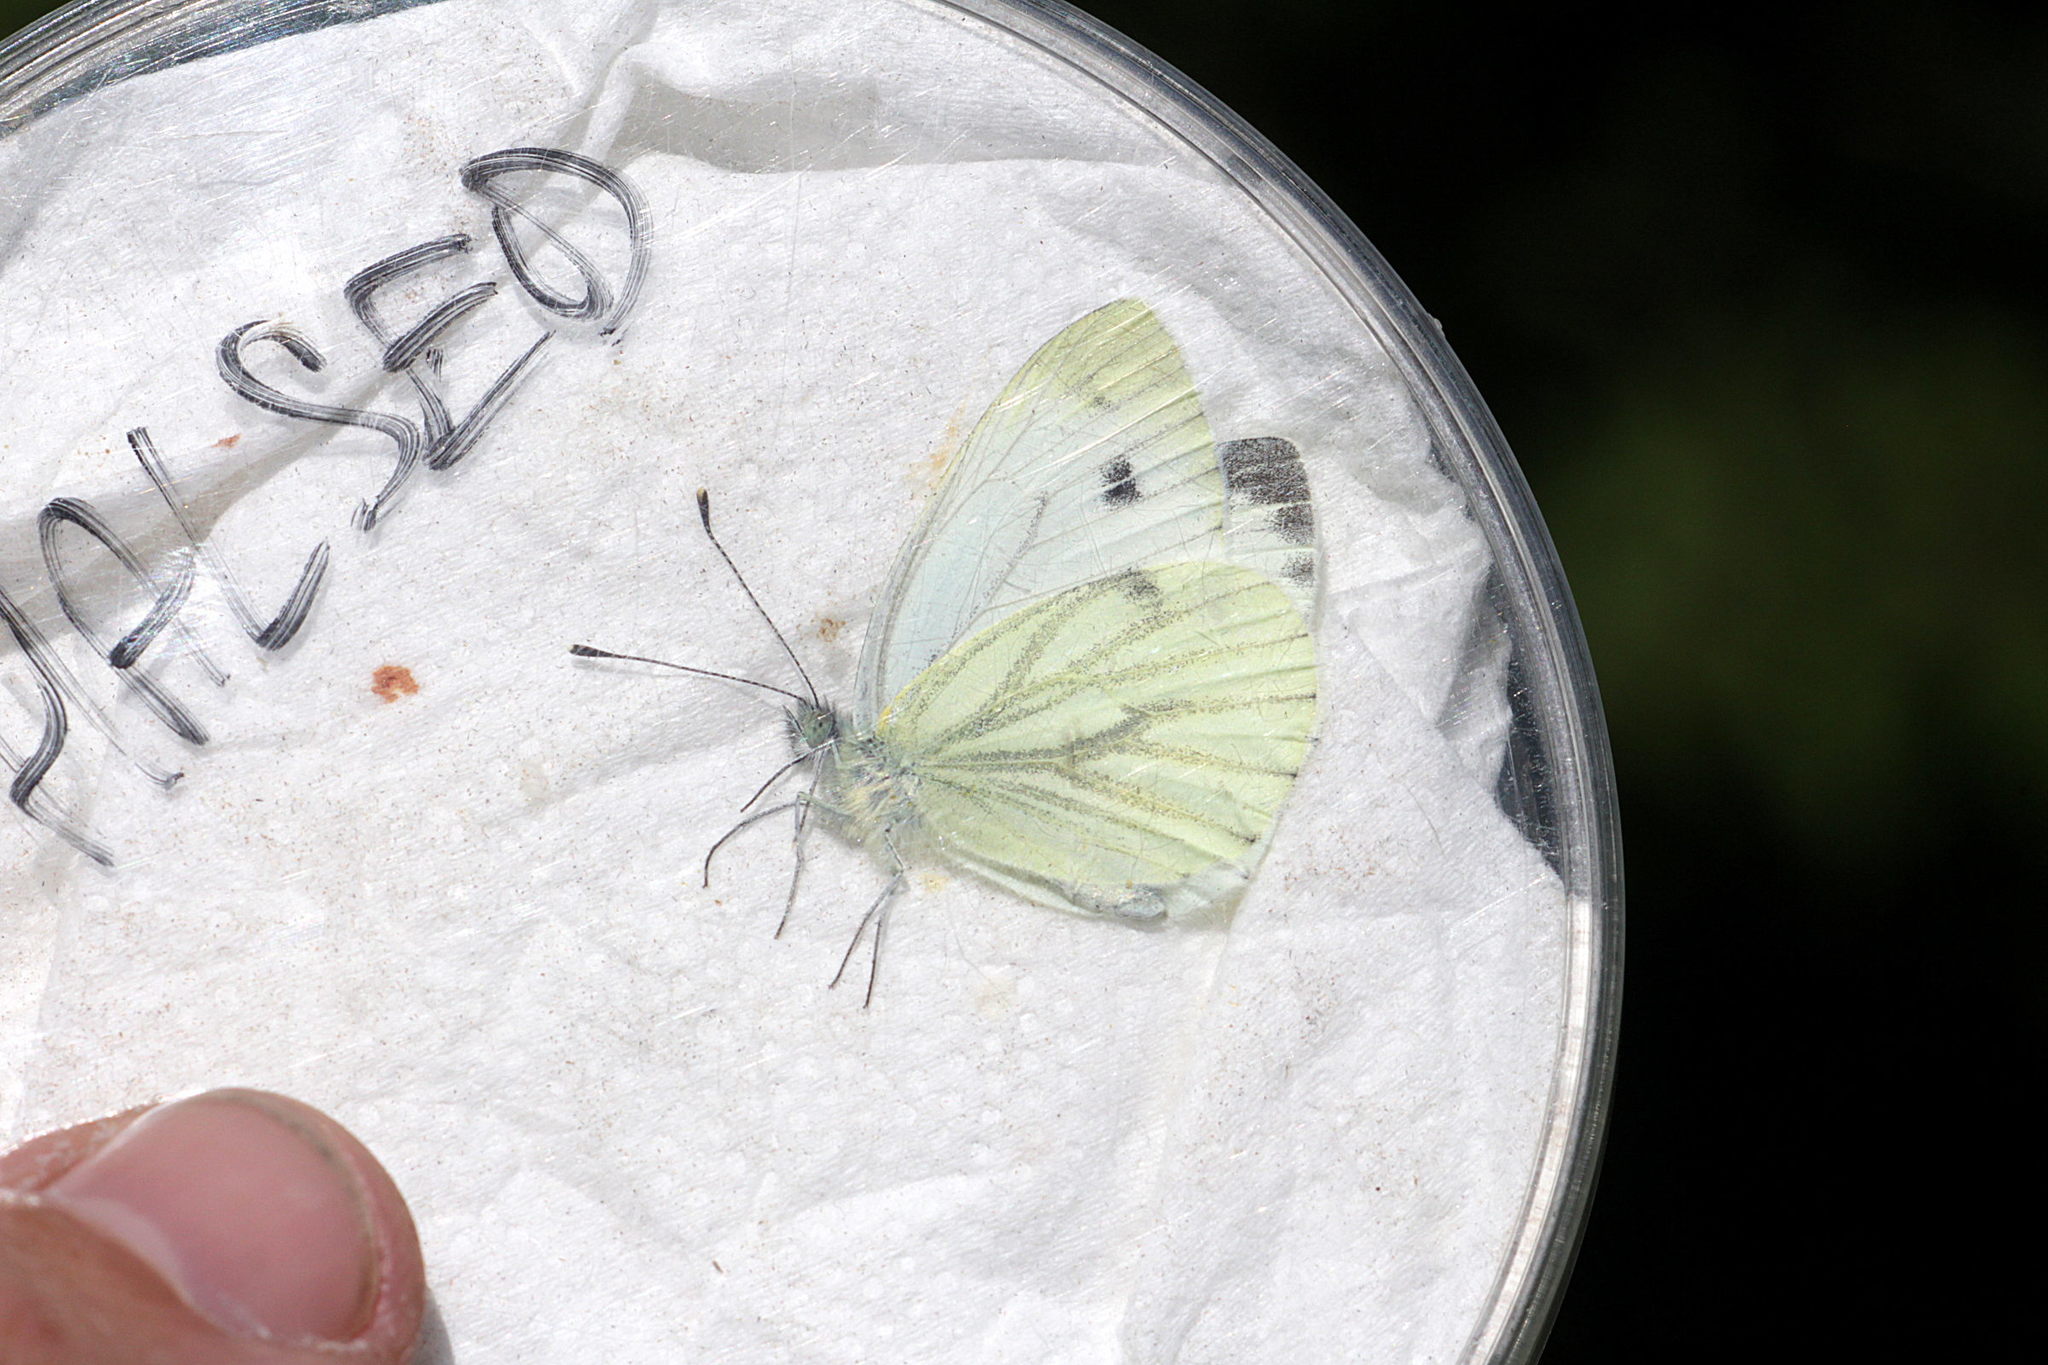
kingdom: Animalia
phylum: Arthropoda
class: Insecta
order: Lepidoptera
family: Pieridae
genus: Pieris
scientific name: Pieris napi
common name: Green-veined white
